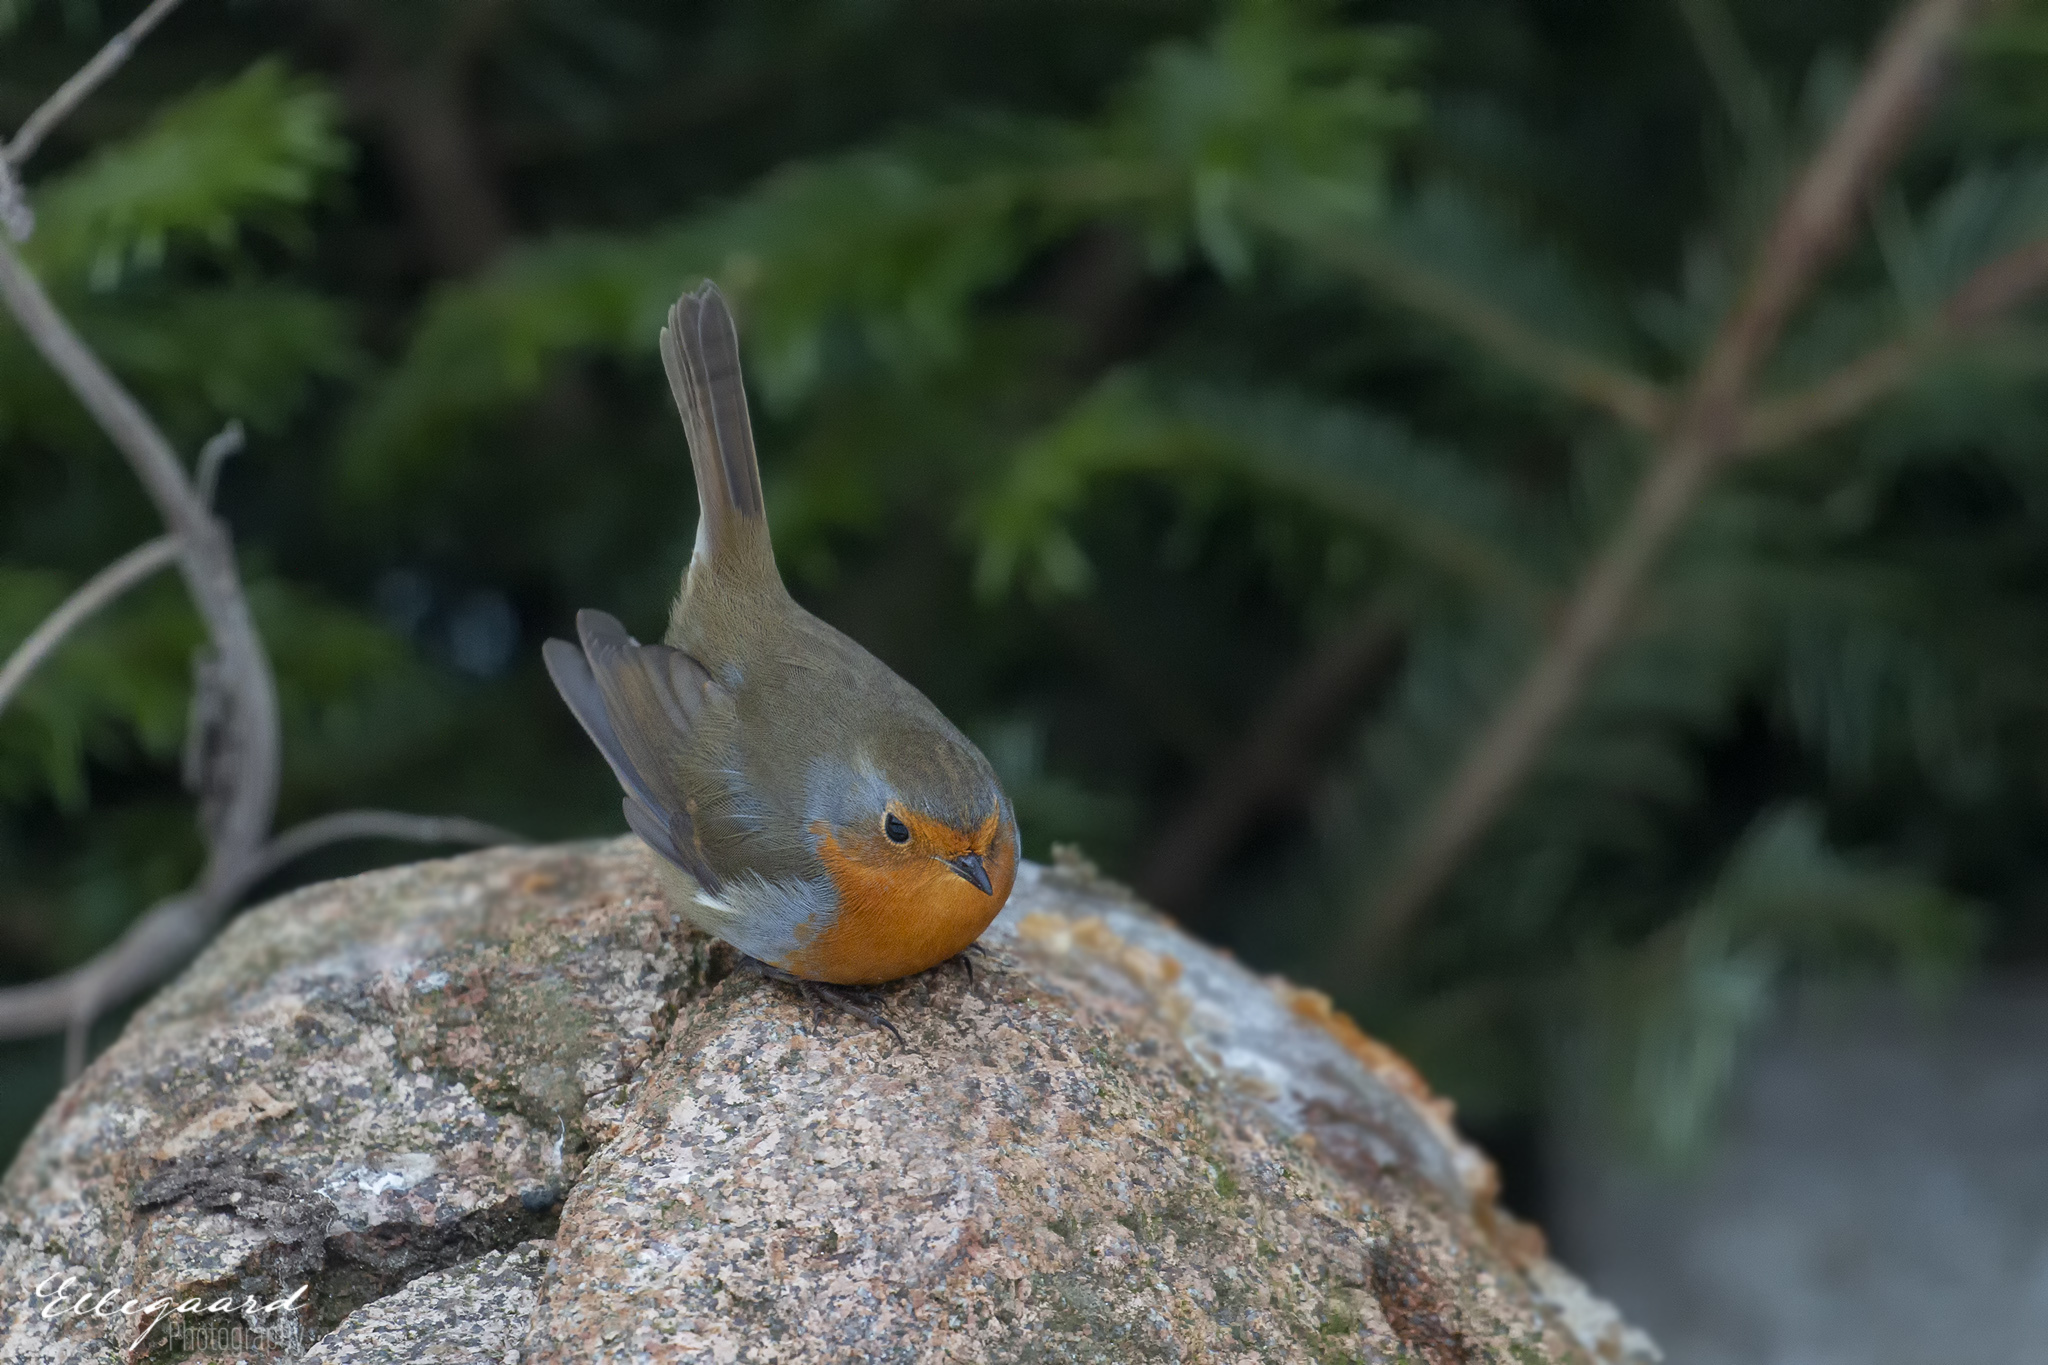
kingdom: Animalia
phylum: Chordata
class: Aves
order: Passeriformes
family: Muscicapidae
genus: Erithacus
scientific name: Erithacus rubecula
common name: European robin
